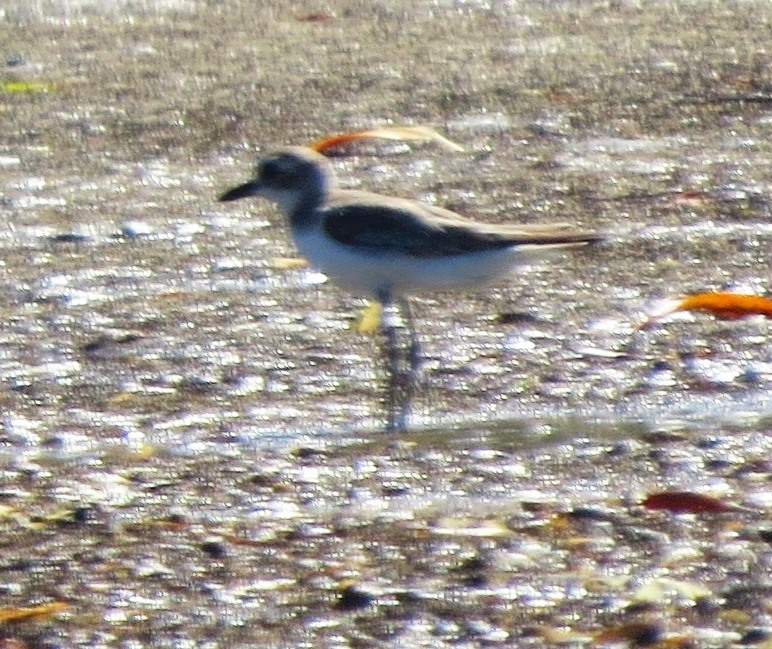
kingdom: Animalia
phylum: Chordata
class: Aves
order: Charadriiformes
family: Charadriidae
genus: Anarhynchus
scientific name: Anarhynchus
